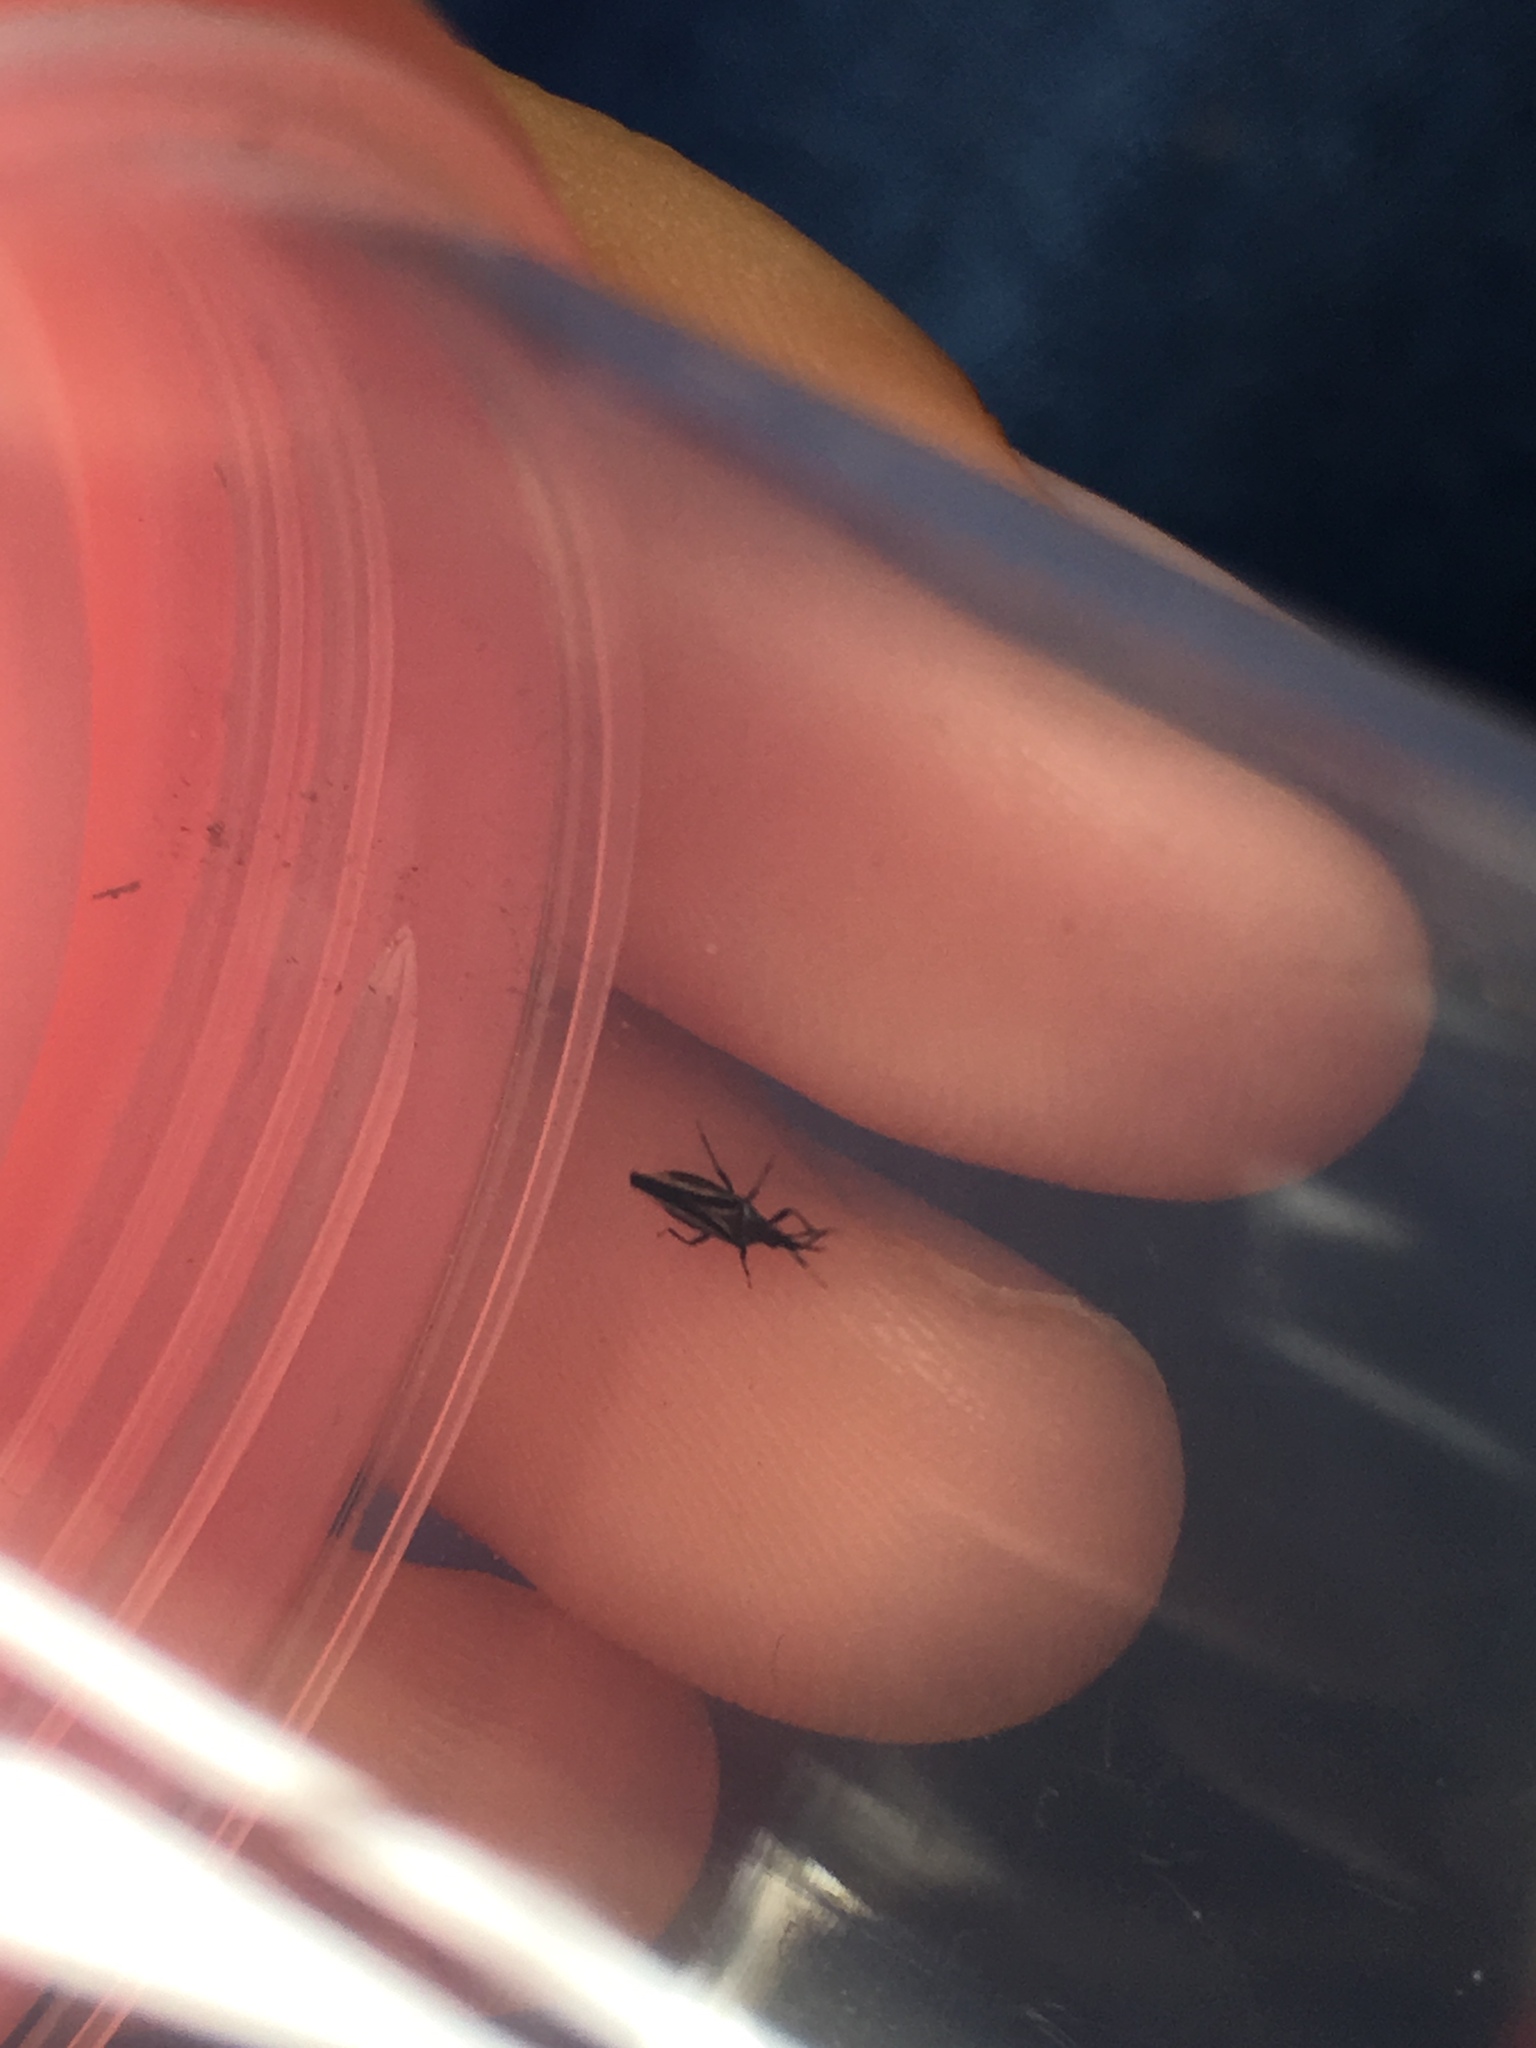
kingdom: Animalia
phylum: Arthropoda
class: Insecta
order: Hemiptera
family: Anthocoridae
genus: Macrotrachelia
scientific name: Macrotrachelia nigronitens
